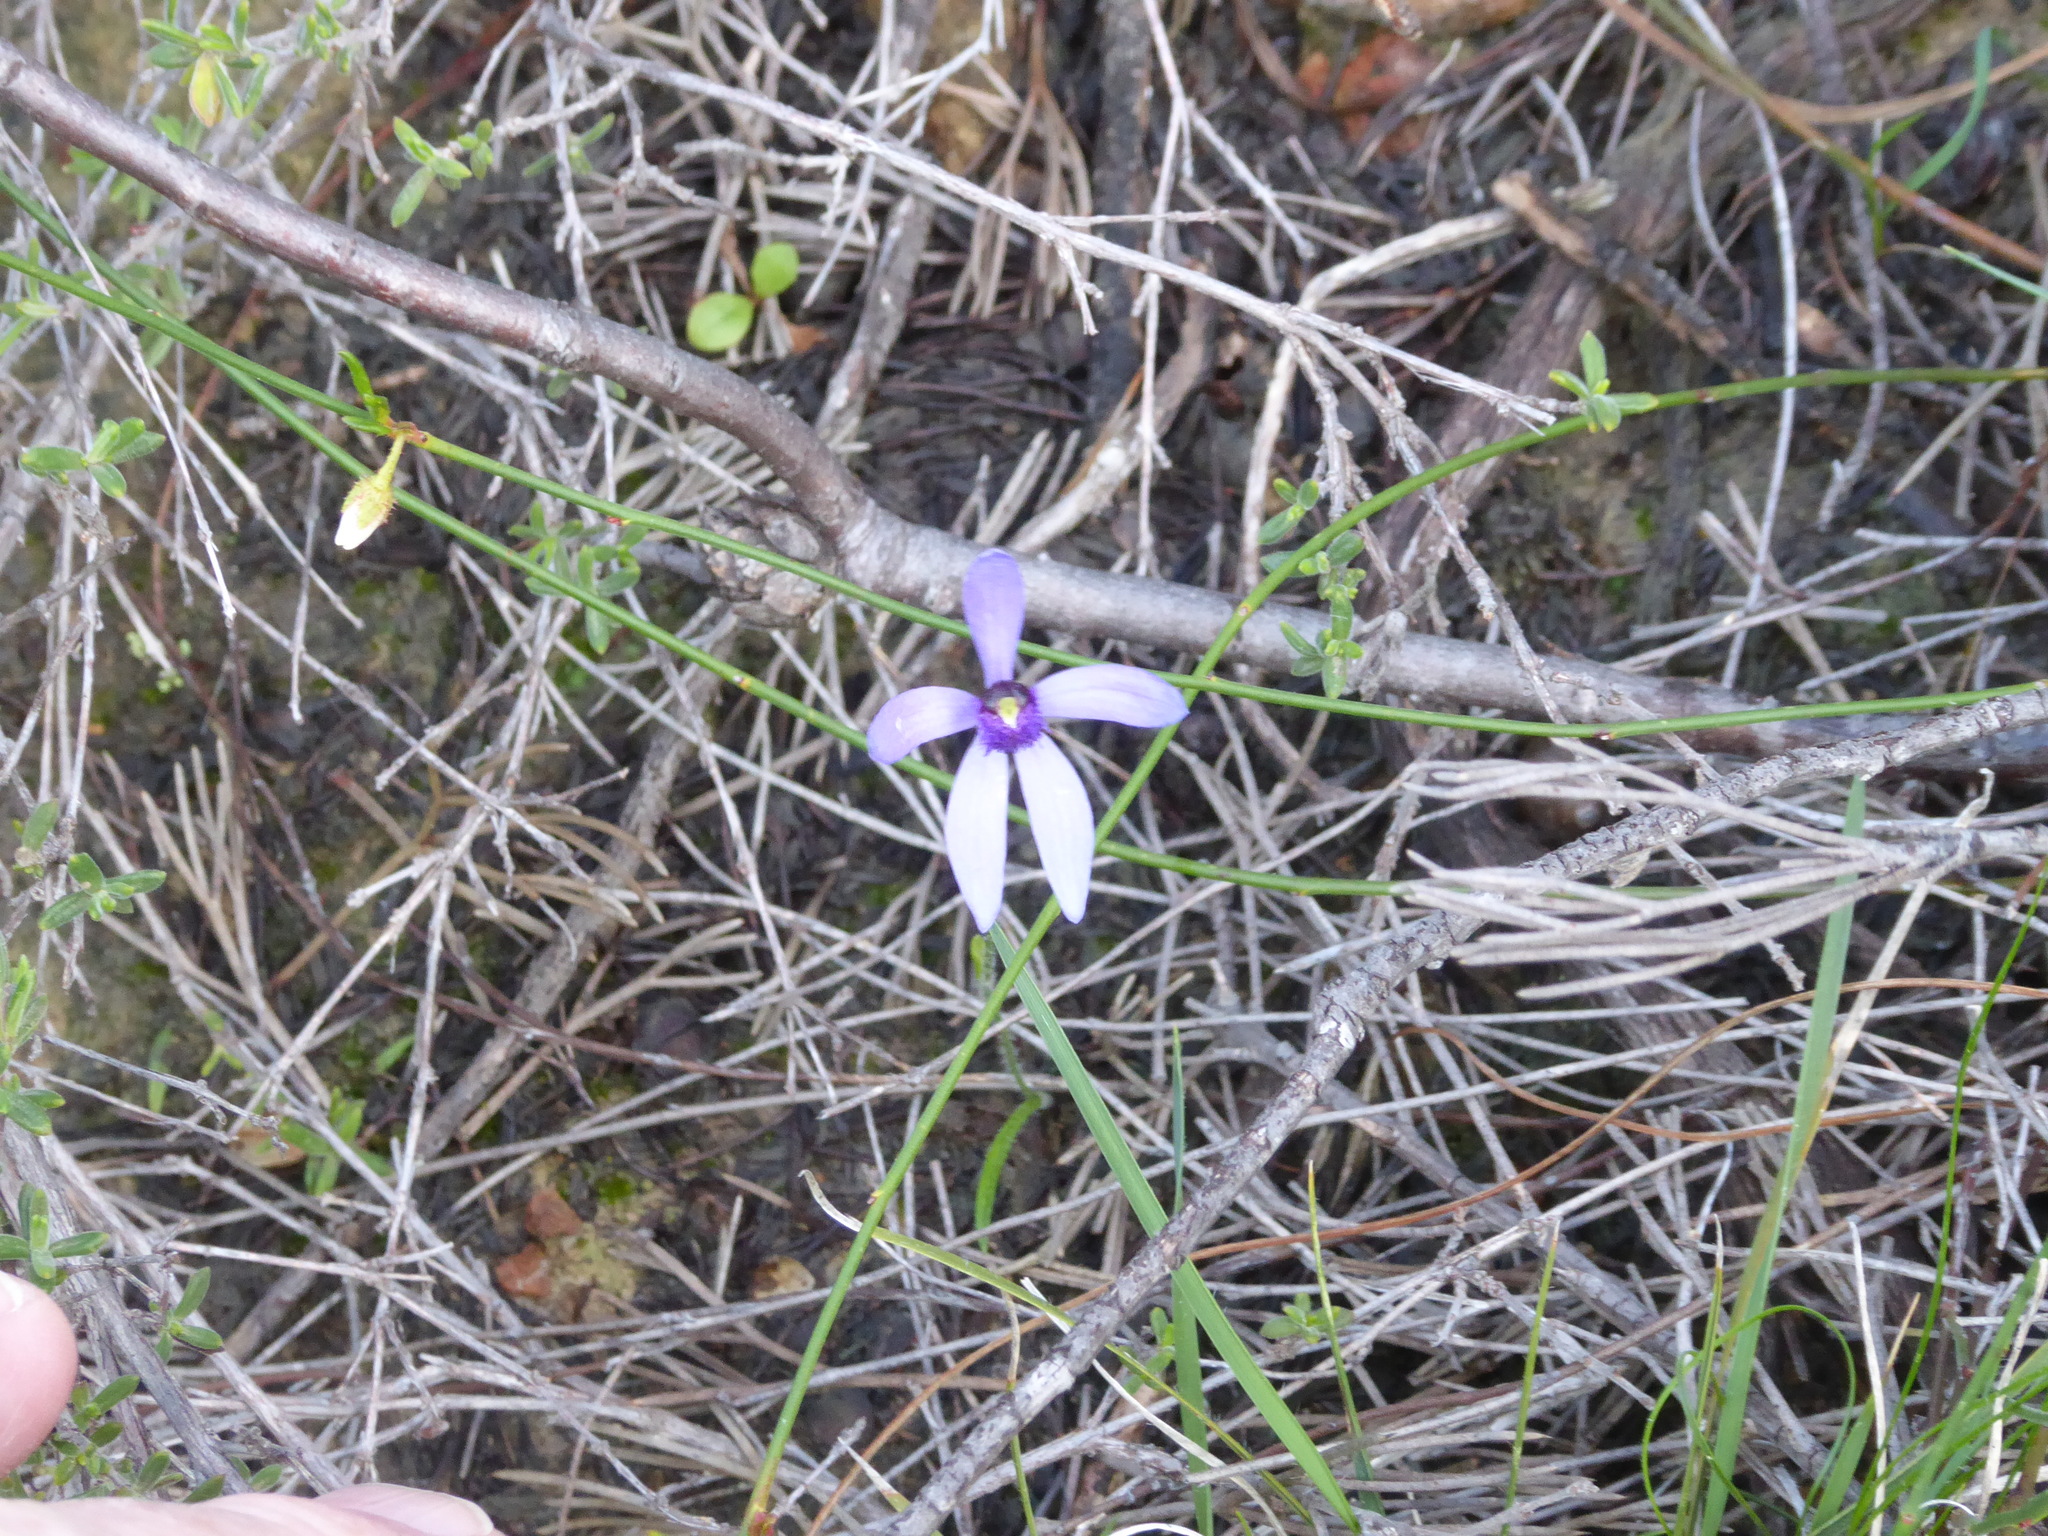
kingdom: Plantae
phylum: Tracheophyta
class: Liliopsida
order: Asparagales
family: Orchidaceae
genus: Pheladenia
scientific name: Pheladenia deformis
